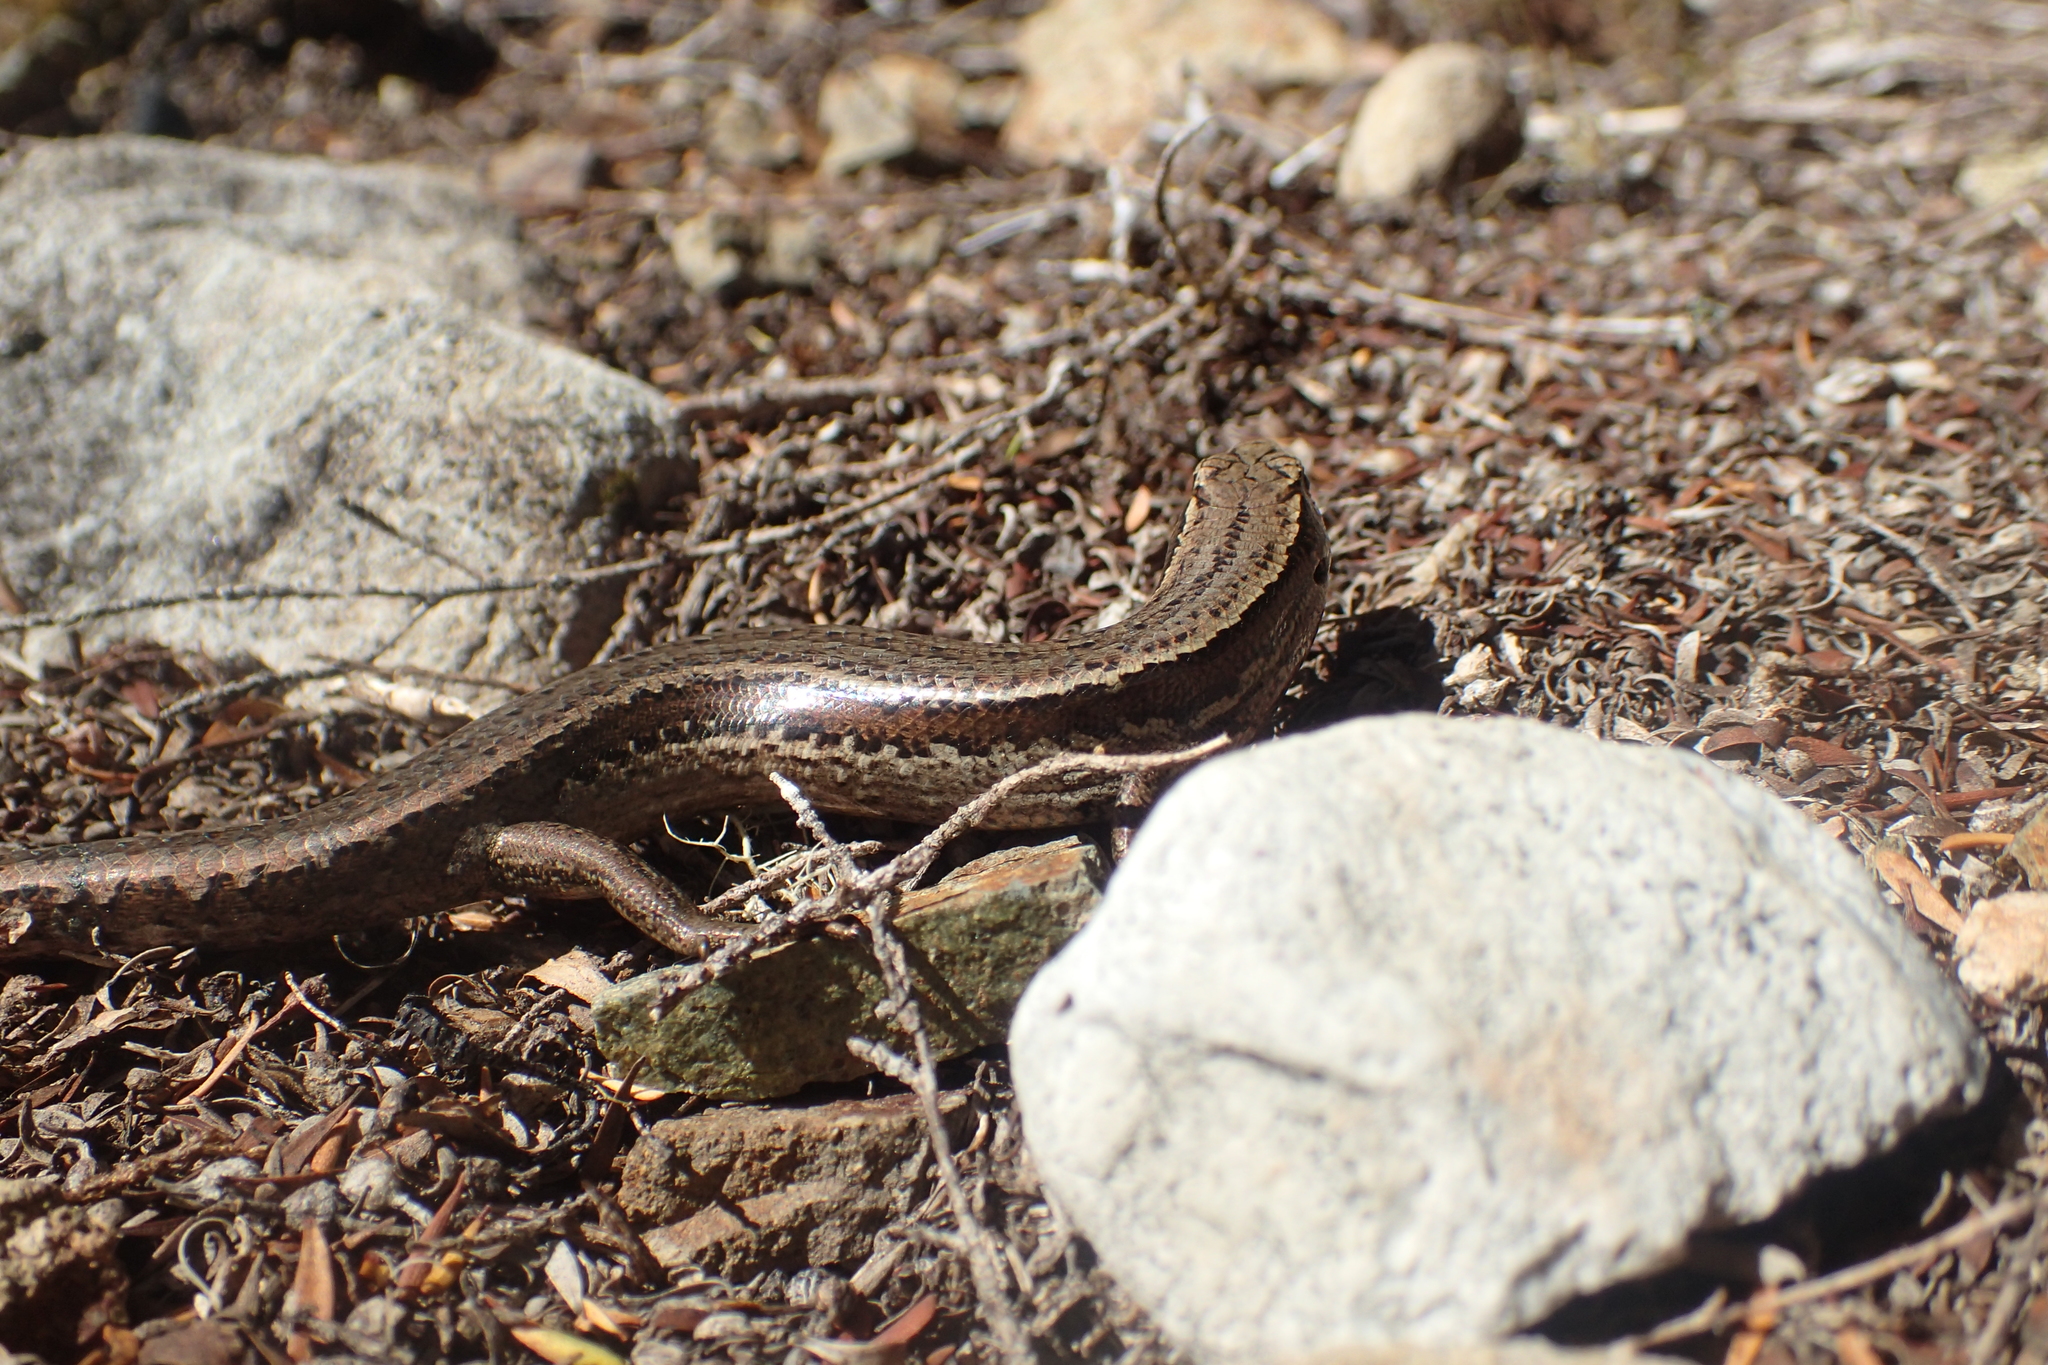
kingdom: Animalia
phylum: Chordata
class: Squamata
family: Scincidae
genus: Oligosoma
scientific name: Oligosoma polychroma
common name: Common new zealand skink
